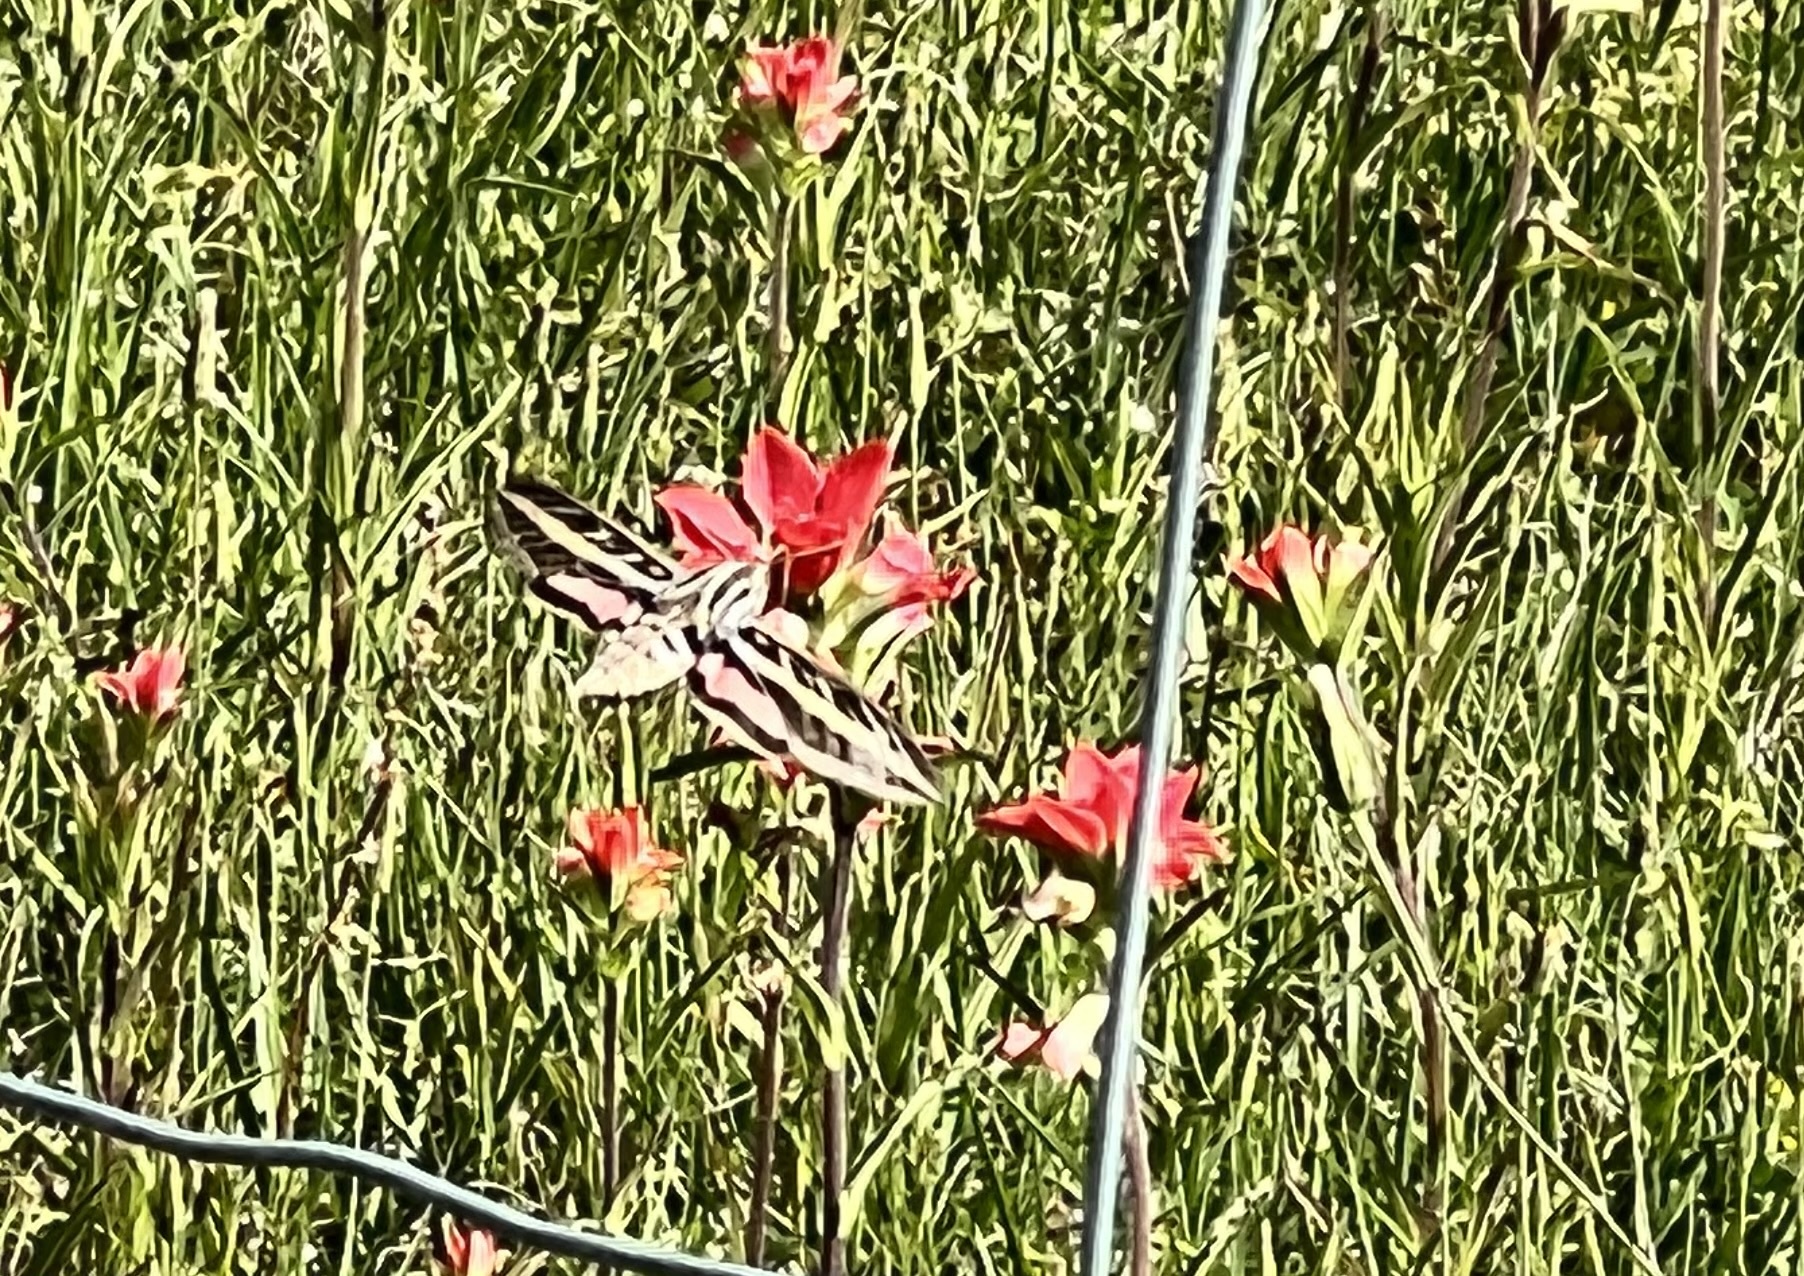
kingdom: Animalia
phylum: Arthropoda
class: Insecta
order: Lepidoptera
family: Sphingidae
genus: Hyles
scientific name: Hyles lineata
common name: White-lined sphinx
